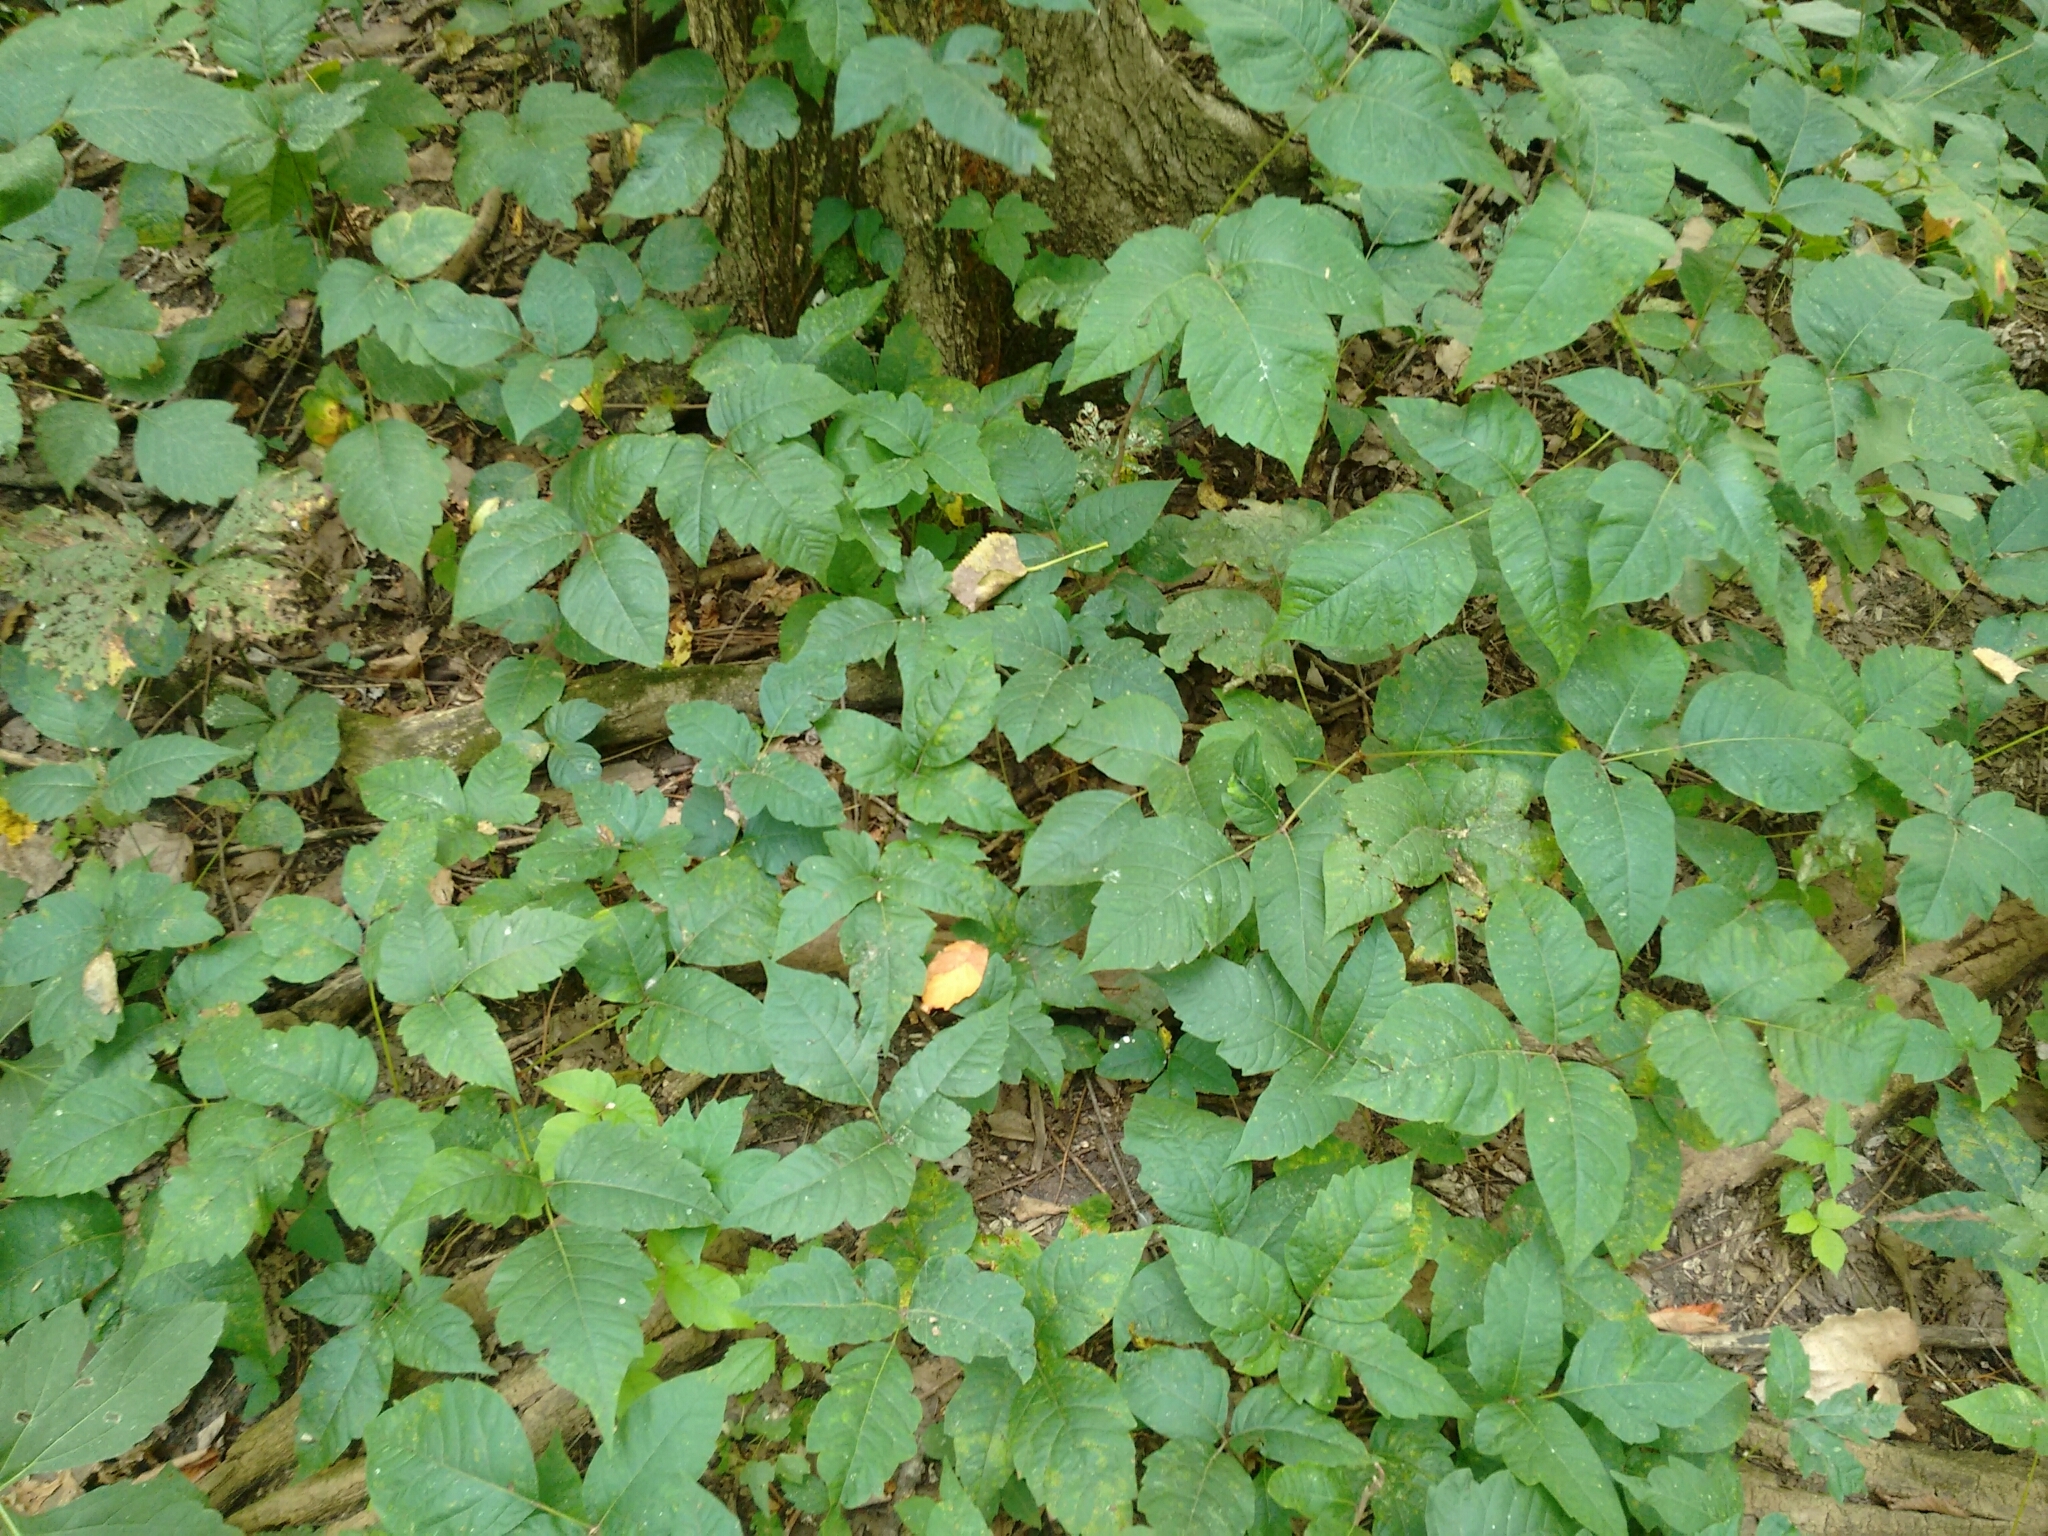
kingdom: Plantae
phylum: Tracheophyta
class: Magnoliopsida
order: Sapindales
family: Anacardiaceae
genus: Toxicodendron
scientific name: Toxicodendron radicans
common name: Poison ivy
